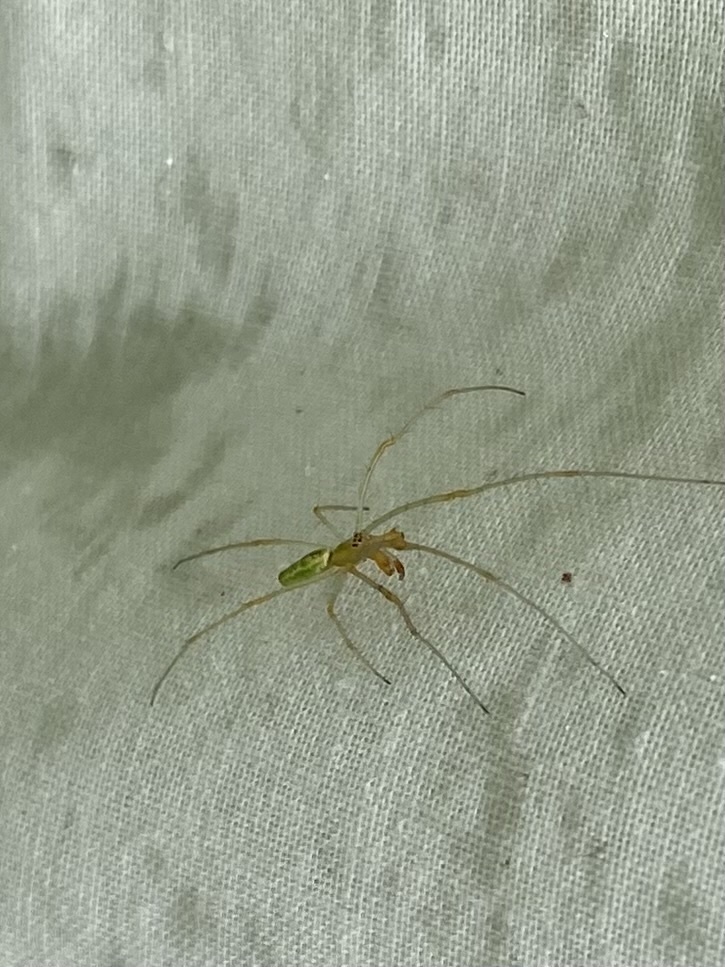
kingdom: Animalia
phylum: Arthropoda
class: Arachnida
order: Araneae
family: Tetragnathidae
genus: Tetragnatha
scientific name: Tetragnatha viridis
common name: Green long-jawed spider
